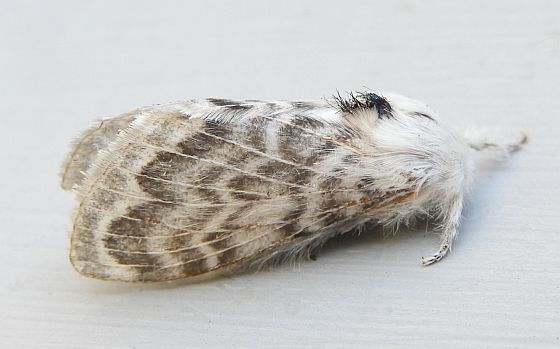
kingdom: Animalia
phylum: Arthropoda
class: Insecta
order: Lepidoptera
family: Lasiocampidae
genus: Apotolype
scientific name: Apotolype brevicrista
